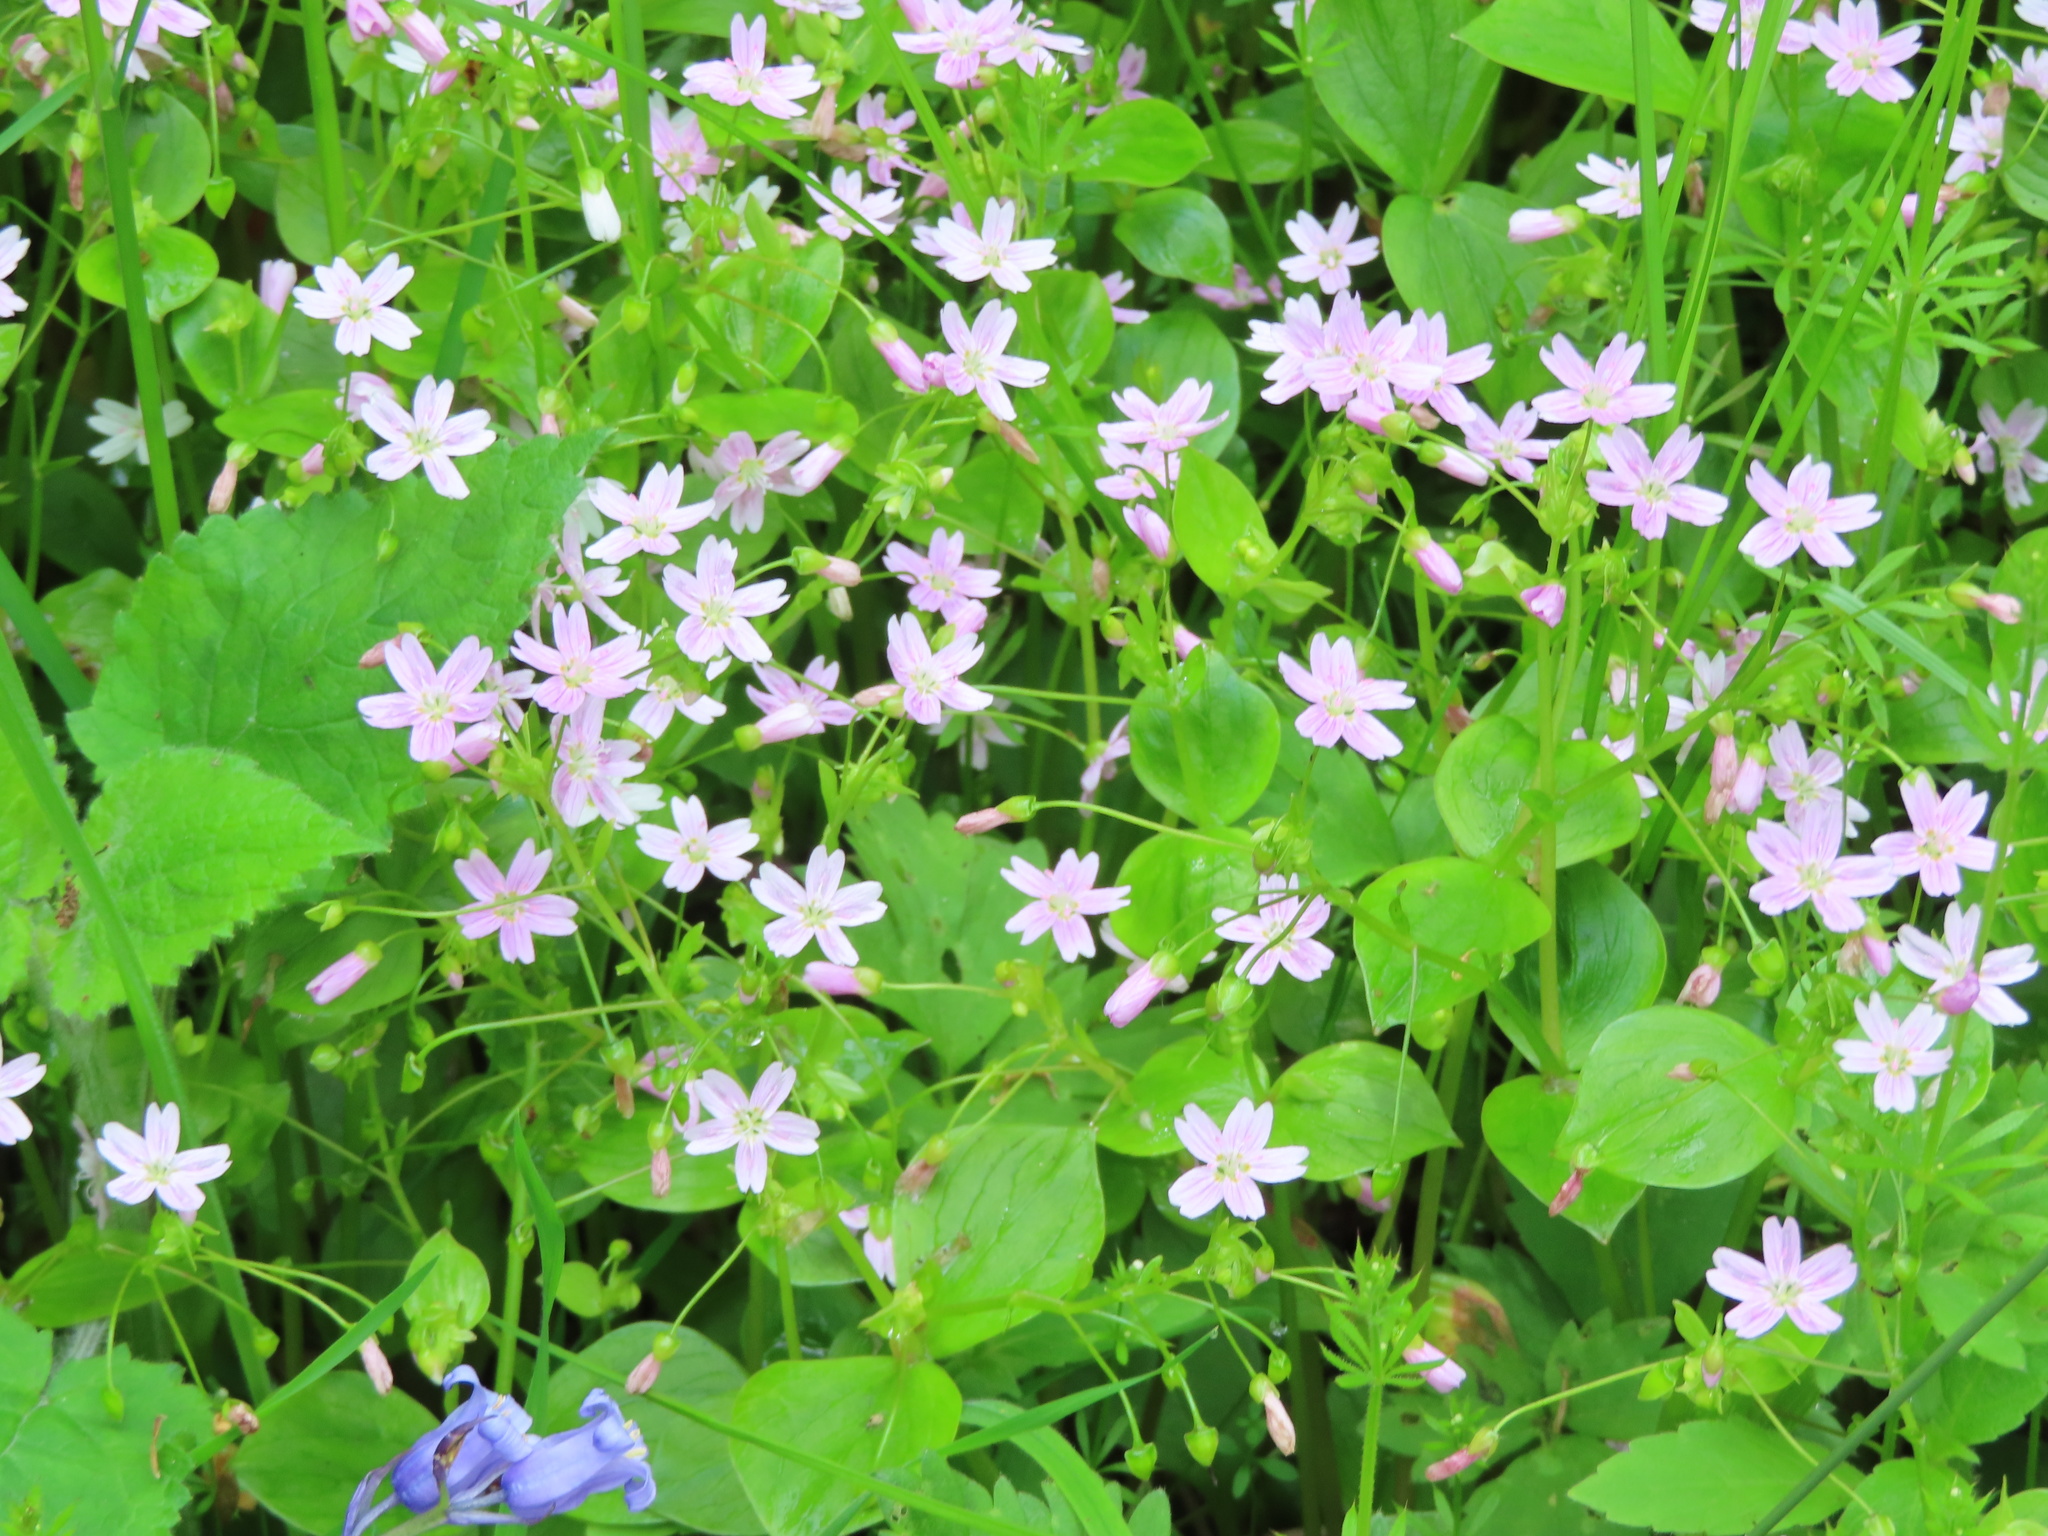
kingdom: Plantae
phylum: Tracheophyta
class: Magnoliopsida
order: Caryophyllales
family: Montiaceae
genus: Claytonia
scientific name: Claytonia sibirica
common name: Pink purslane
